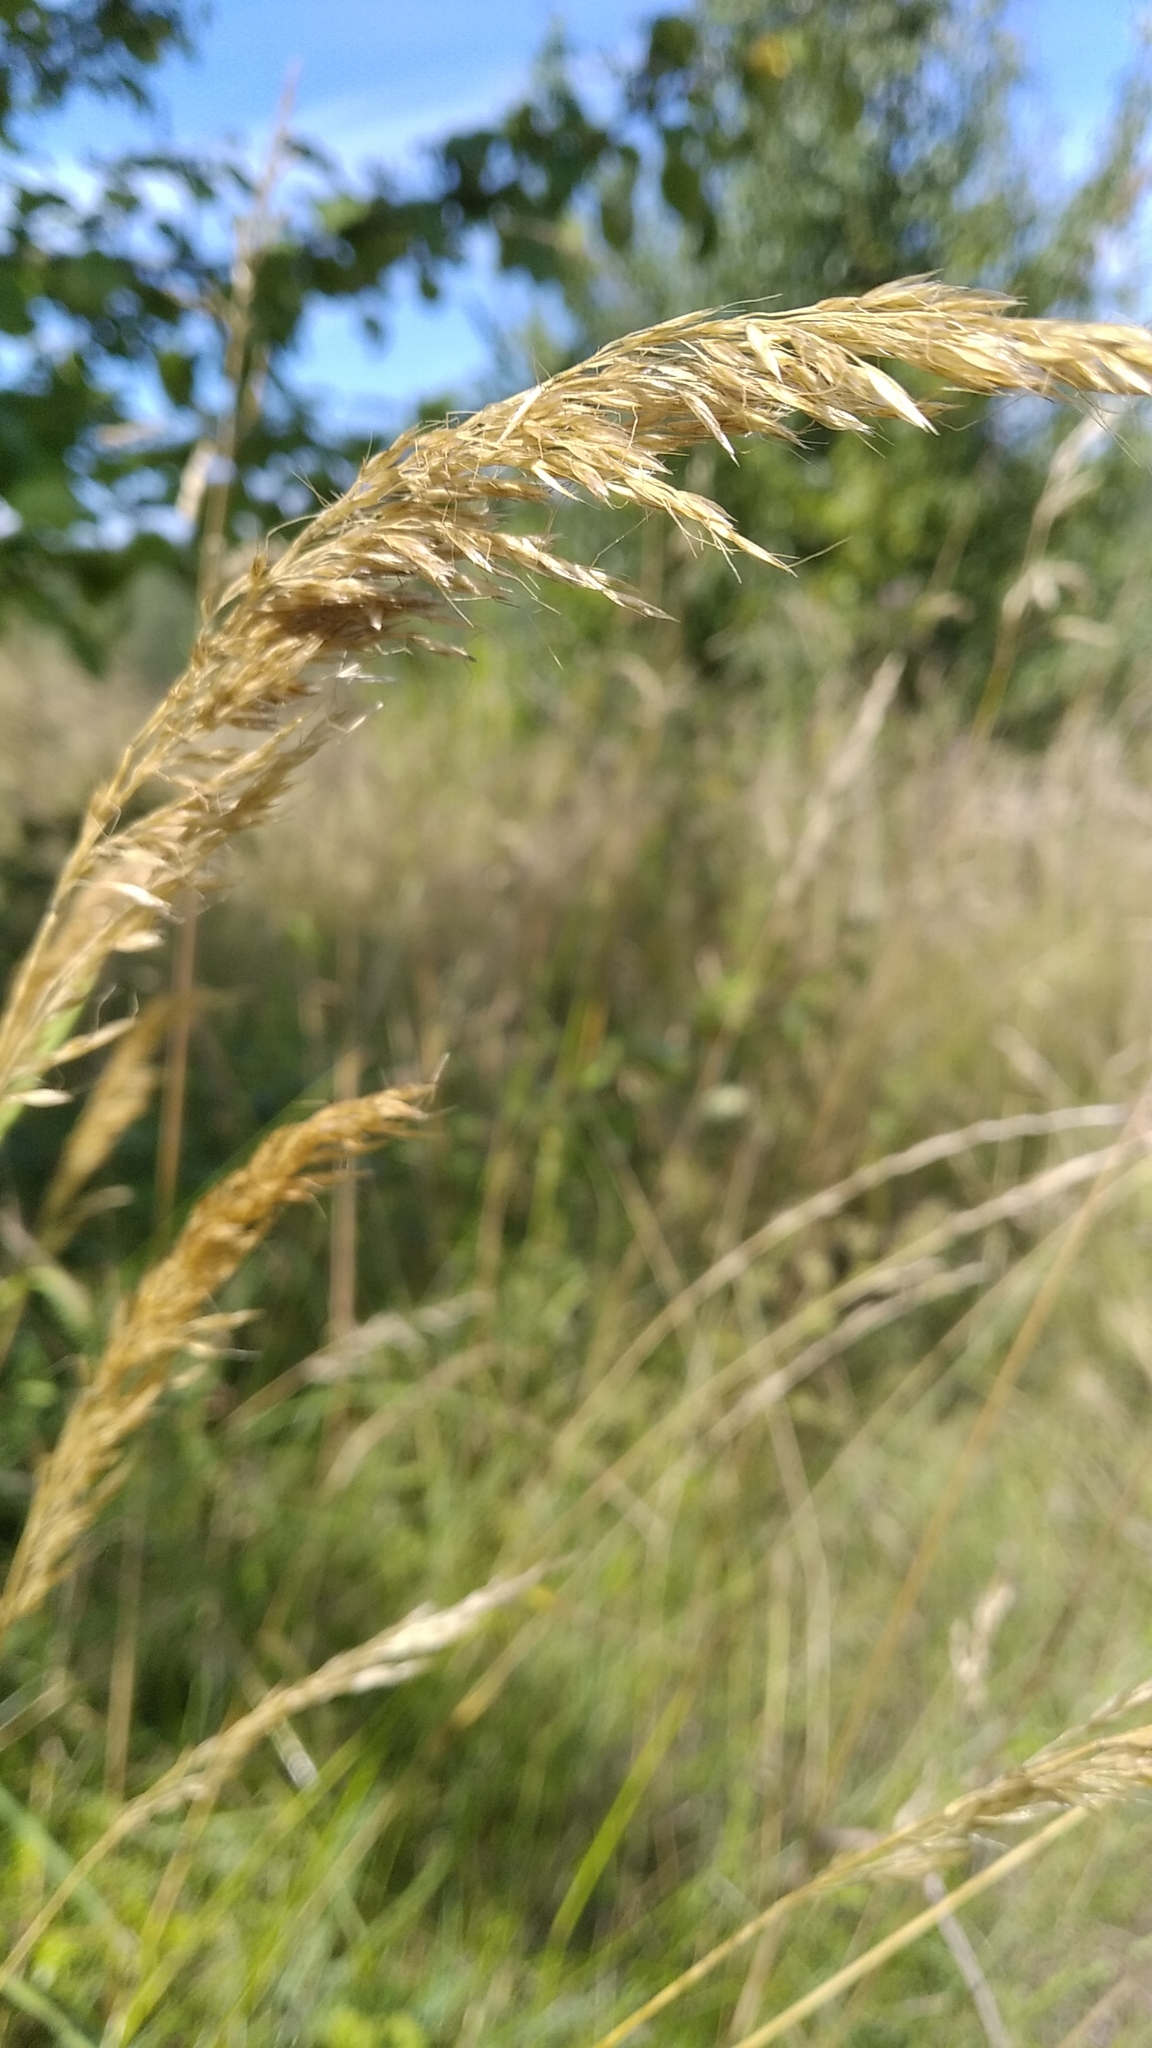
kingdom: Plantae
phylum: Tracheophyta
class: Liliopsida
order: Poales
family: Poaceae
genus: Arrhenatherum
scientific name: Arrhenatherum elatius
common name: Tall oatgrass
